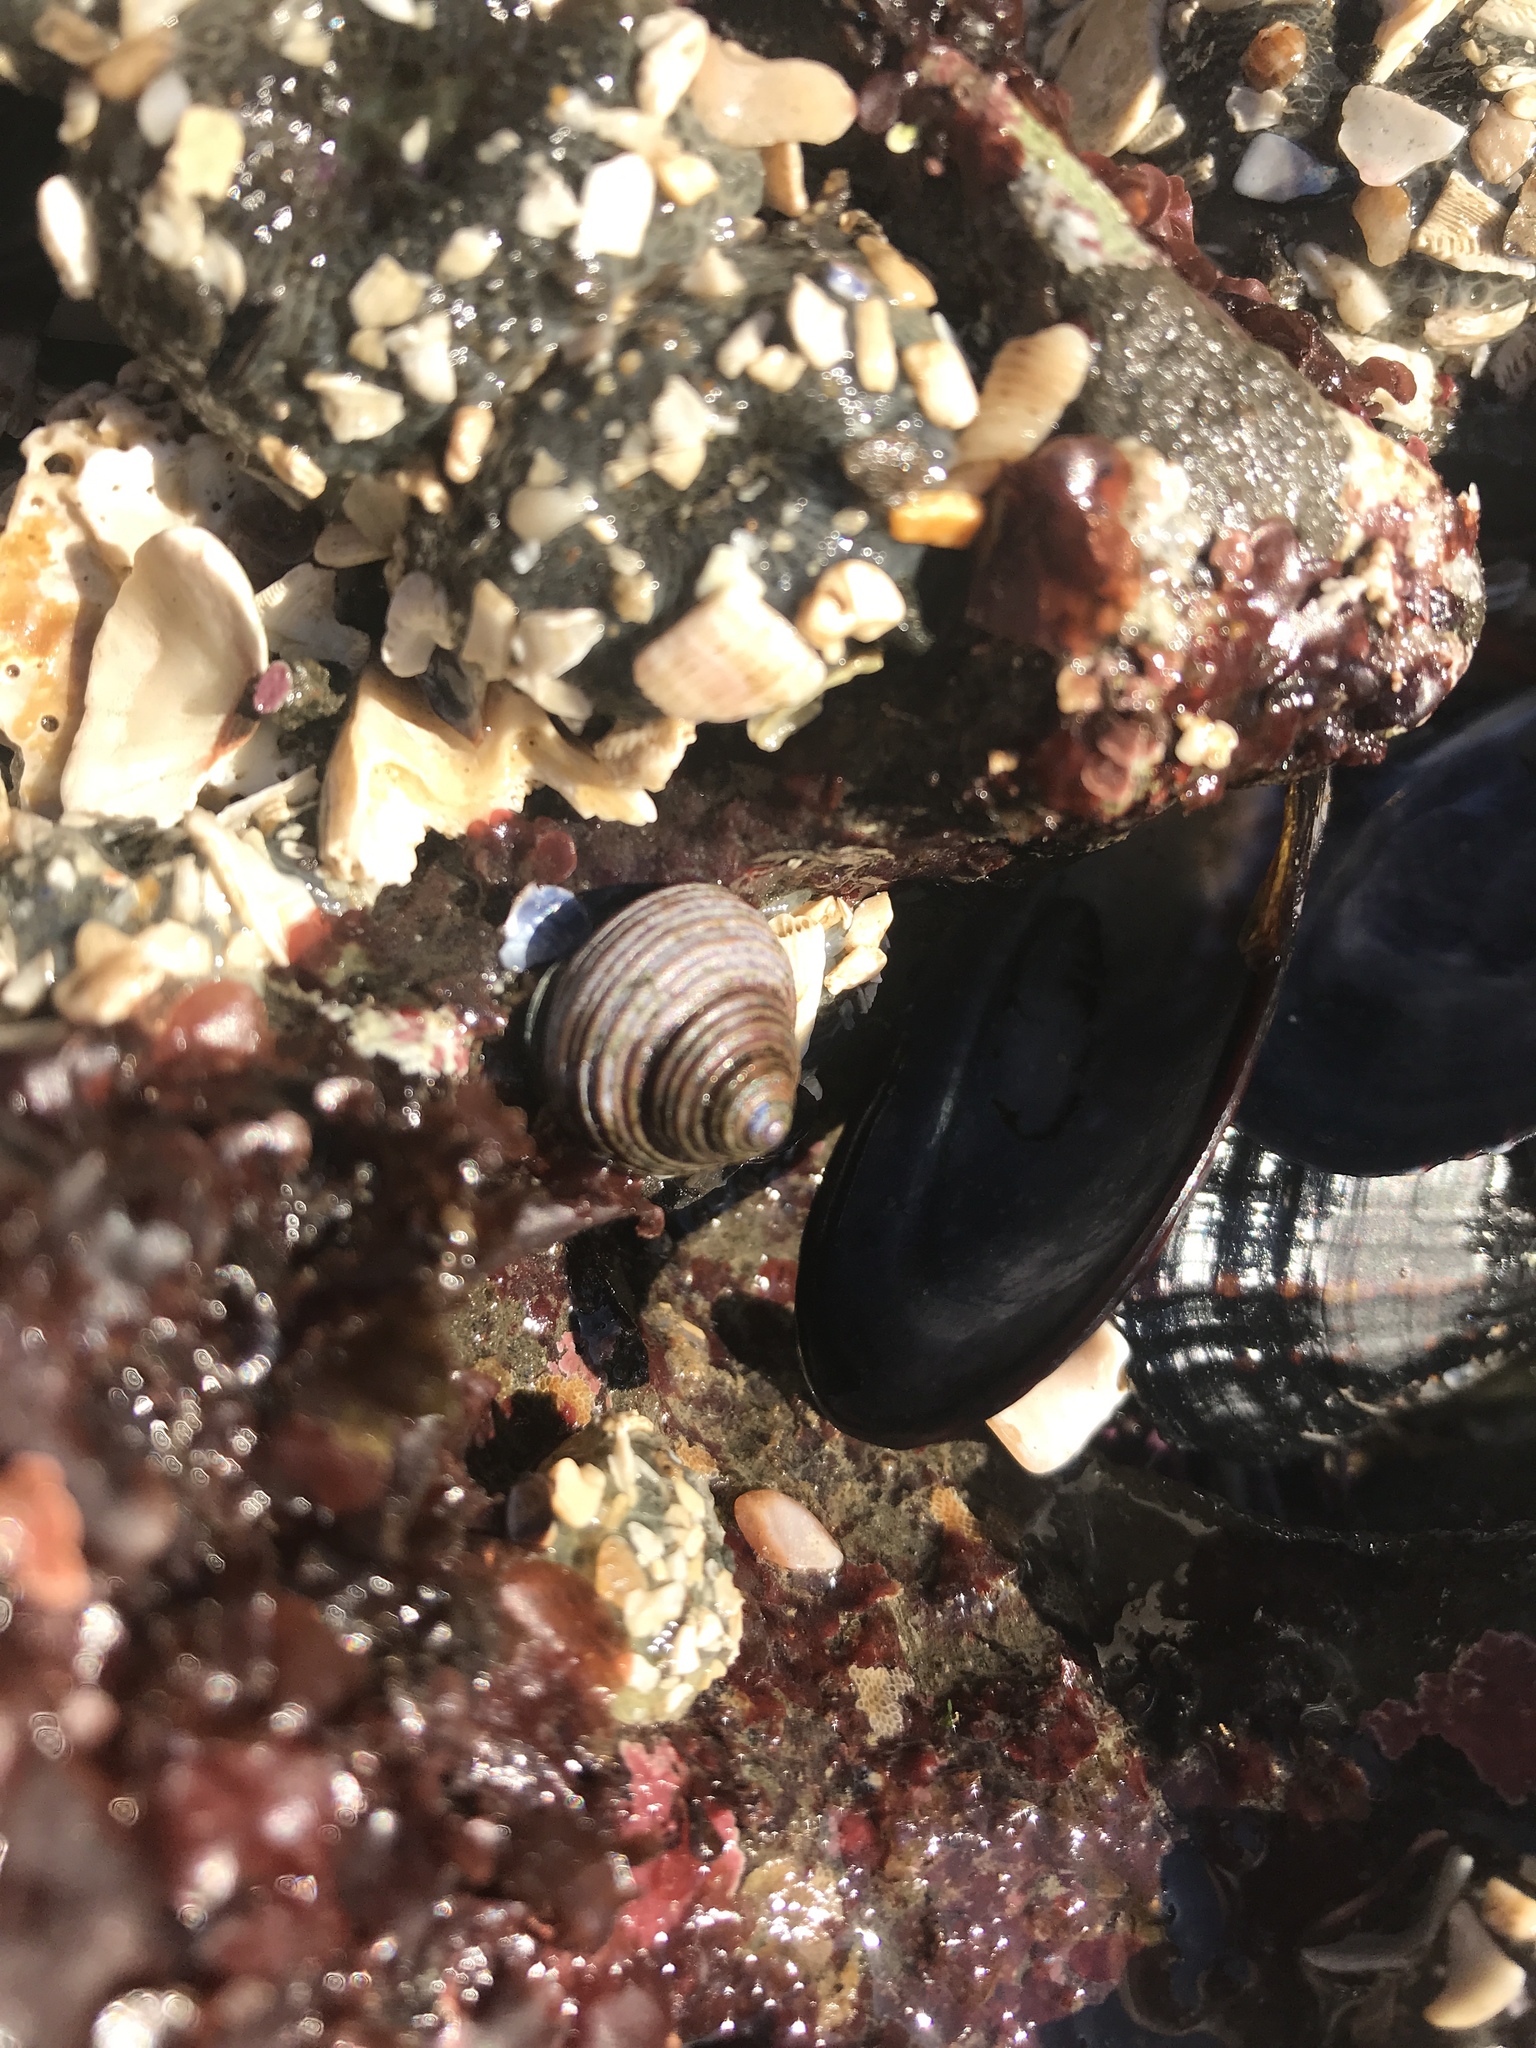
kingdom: Animalia
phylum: Mollusca
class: Gastropoda
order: Trochida
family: Calliostomatidae
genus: Calliostoma
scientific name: Calliostoma ligatum
